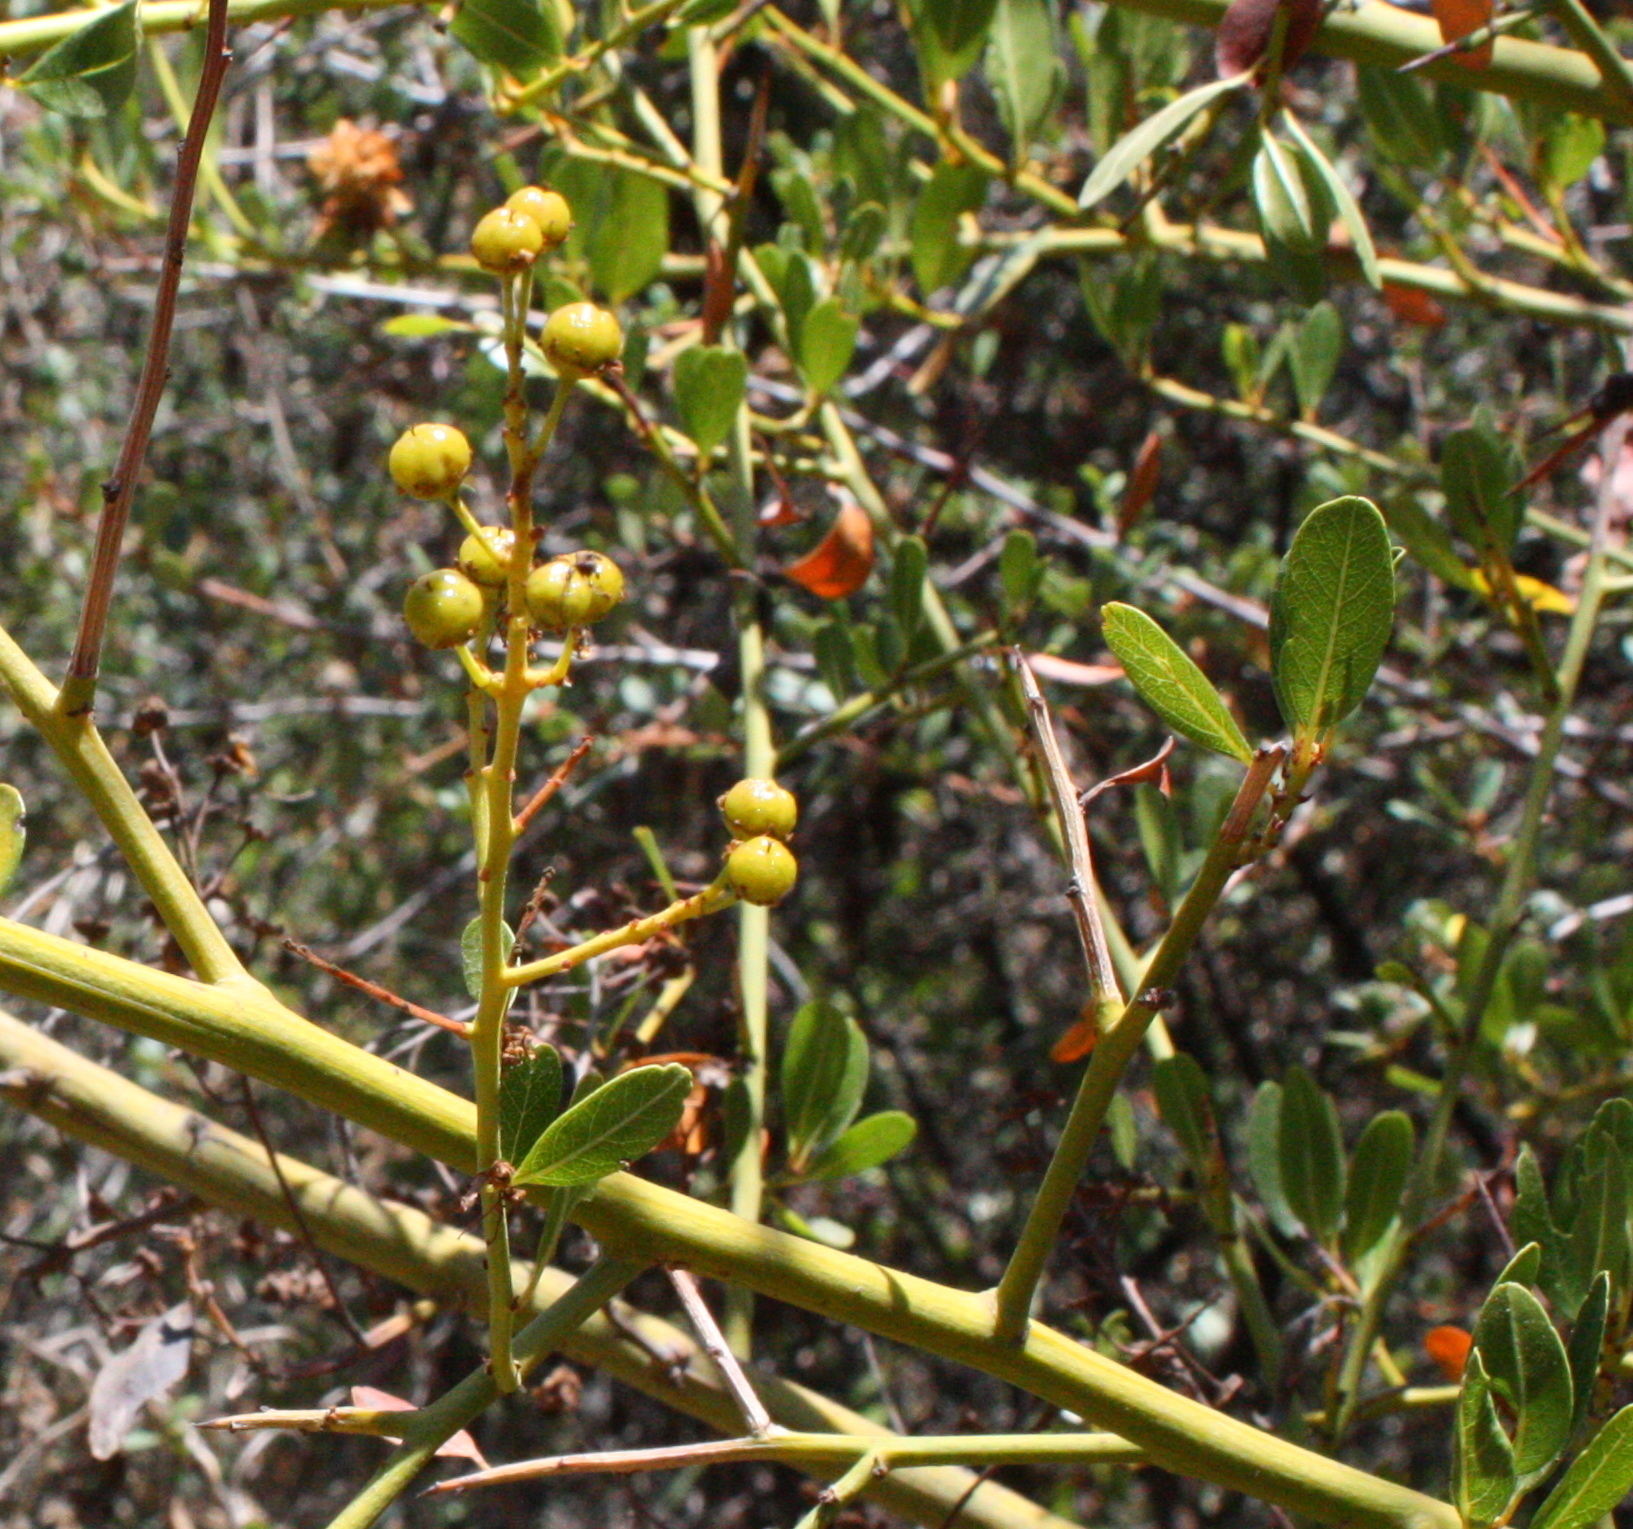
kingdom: Plantae
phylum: Tracheophyta
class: Magnoliopsida
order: Rosales
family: Rhamnaceae
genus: Ceanothus
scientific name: Ceanothus spinosus
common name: Greenbark whitethorn
